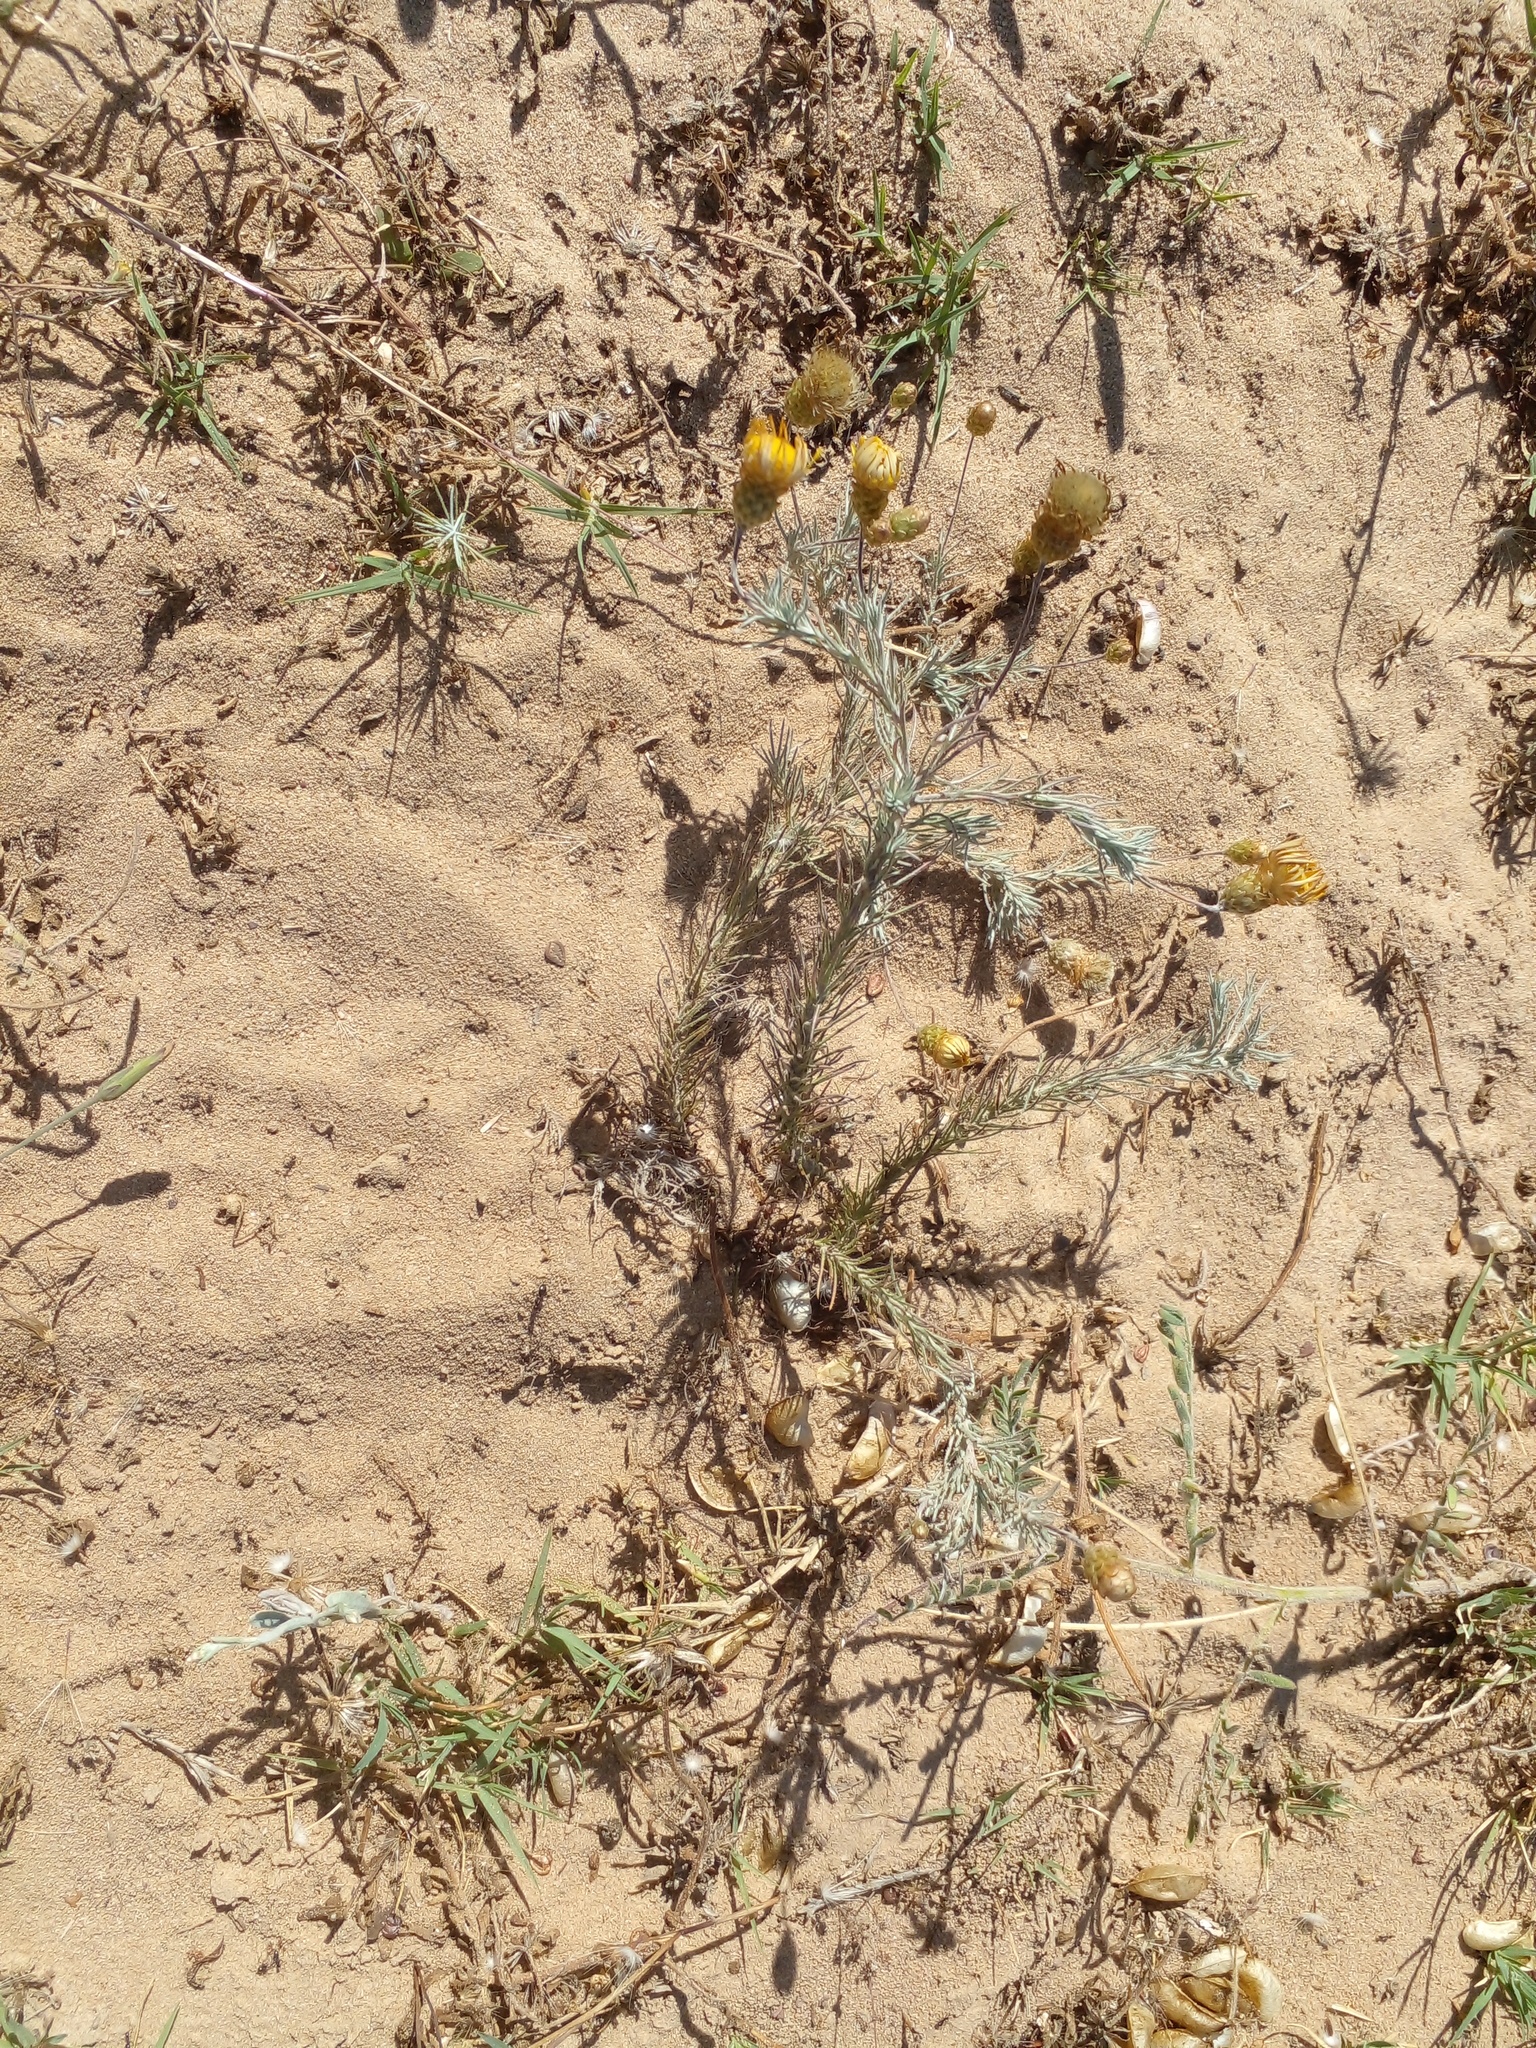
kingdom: Plantae
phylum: Tracheophyta
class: Magnoliopsida
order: Asterales
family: Asteraceae
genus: Leysera
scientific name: Leysera gnaphalodes
